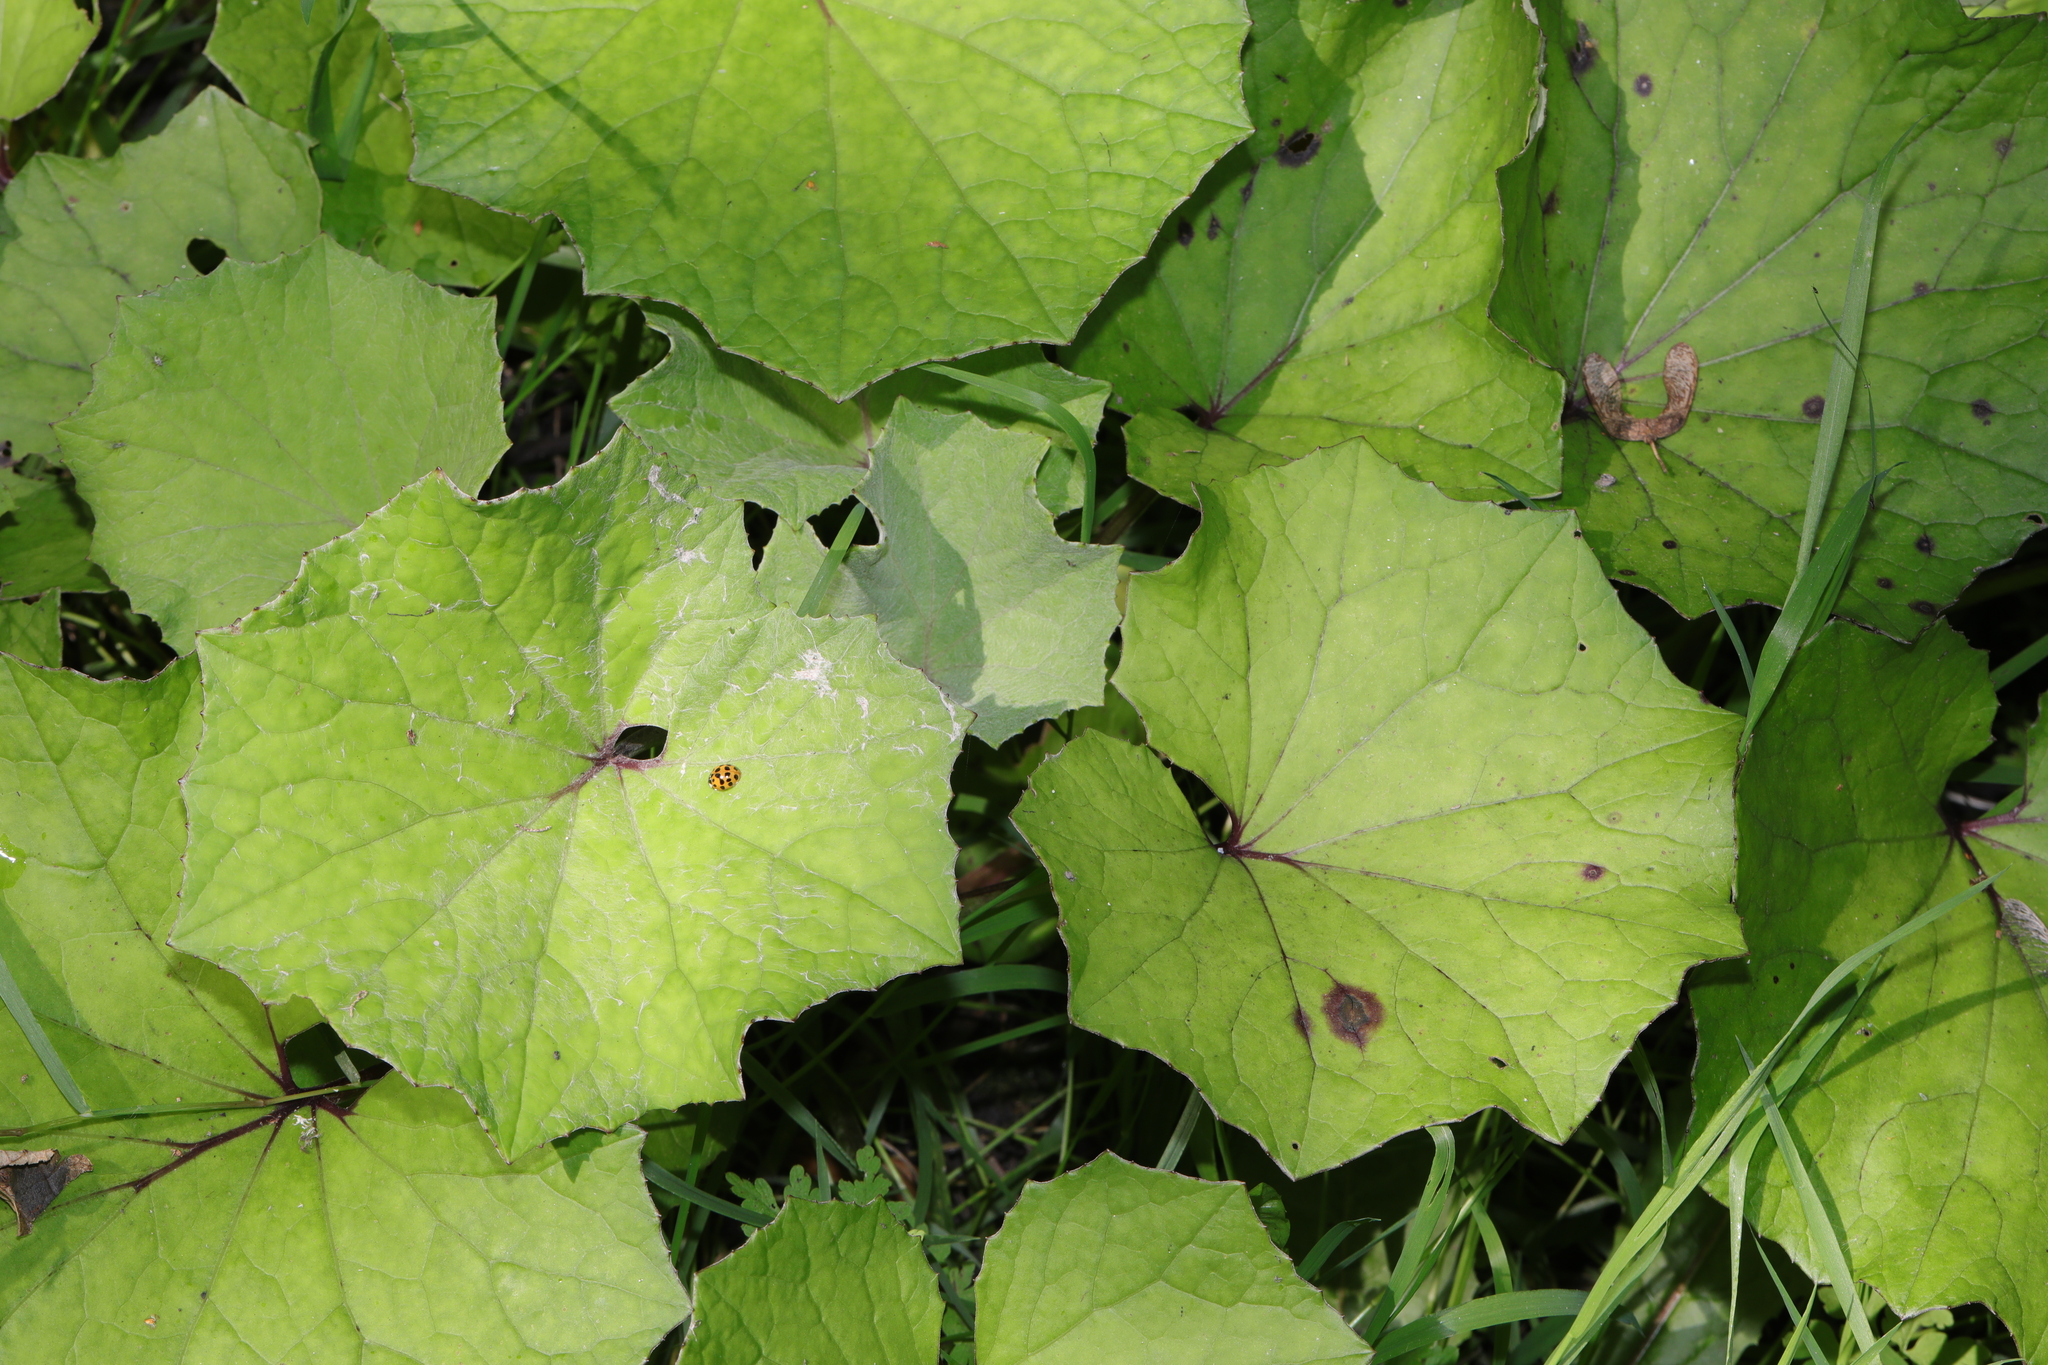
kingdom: Plantae
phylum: Tracheophyta
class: Magnoliopsida
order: Asterales
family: Asteraceae
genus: Tussilago
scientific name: Tussilago farfara
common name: Coltsfoot
